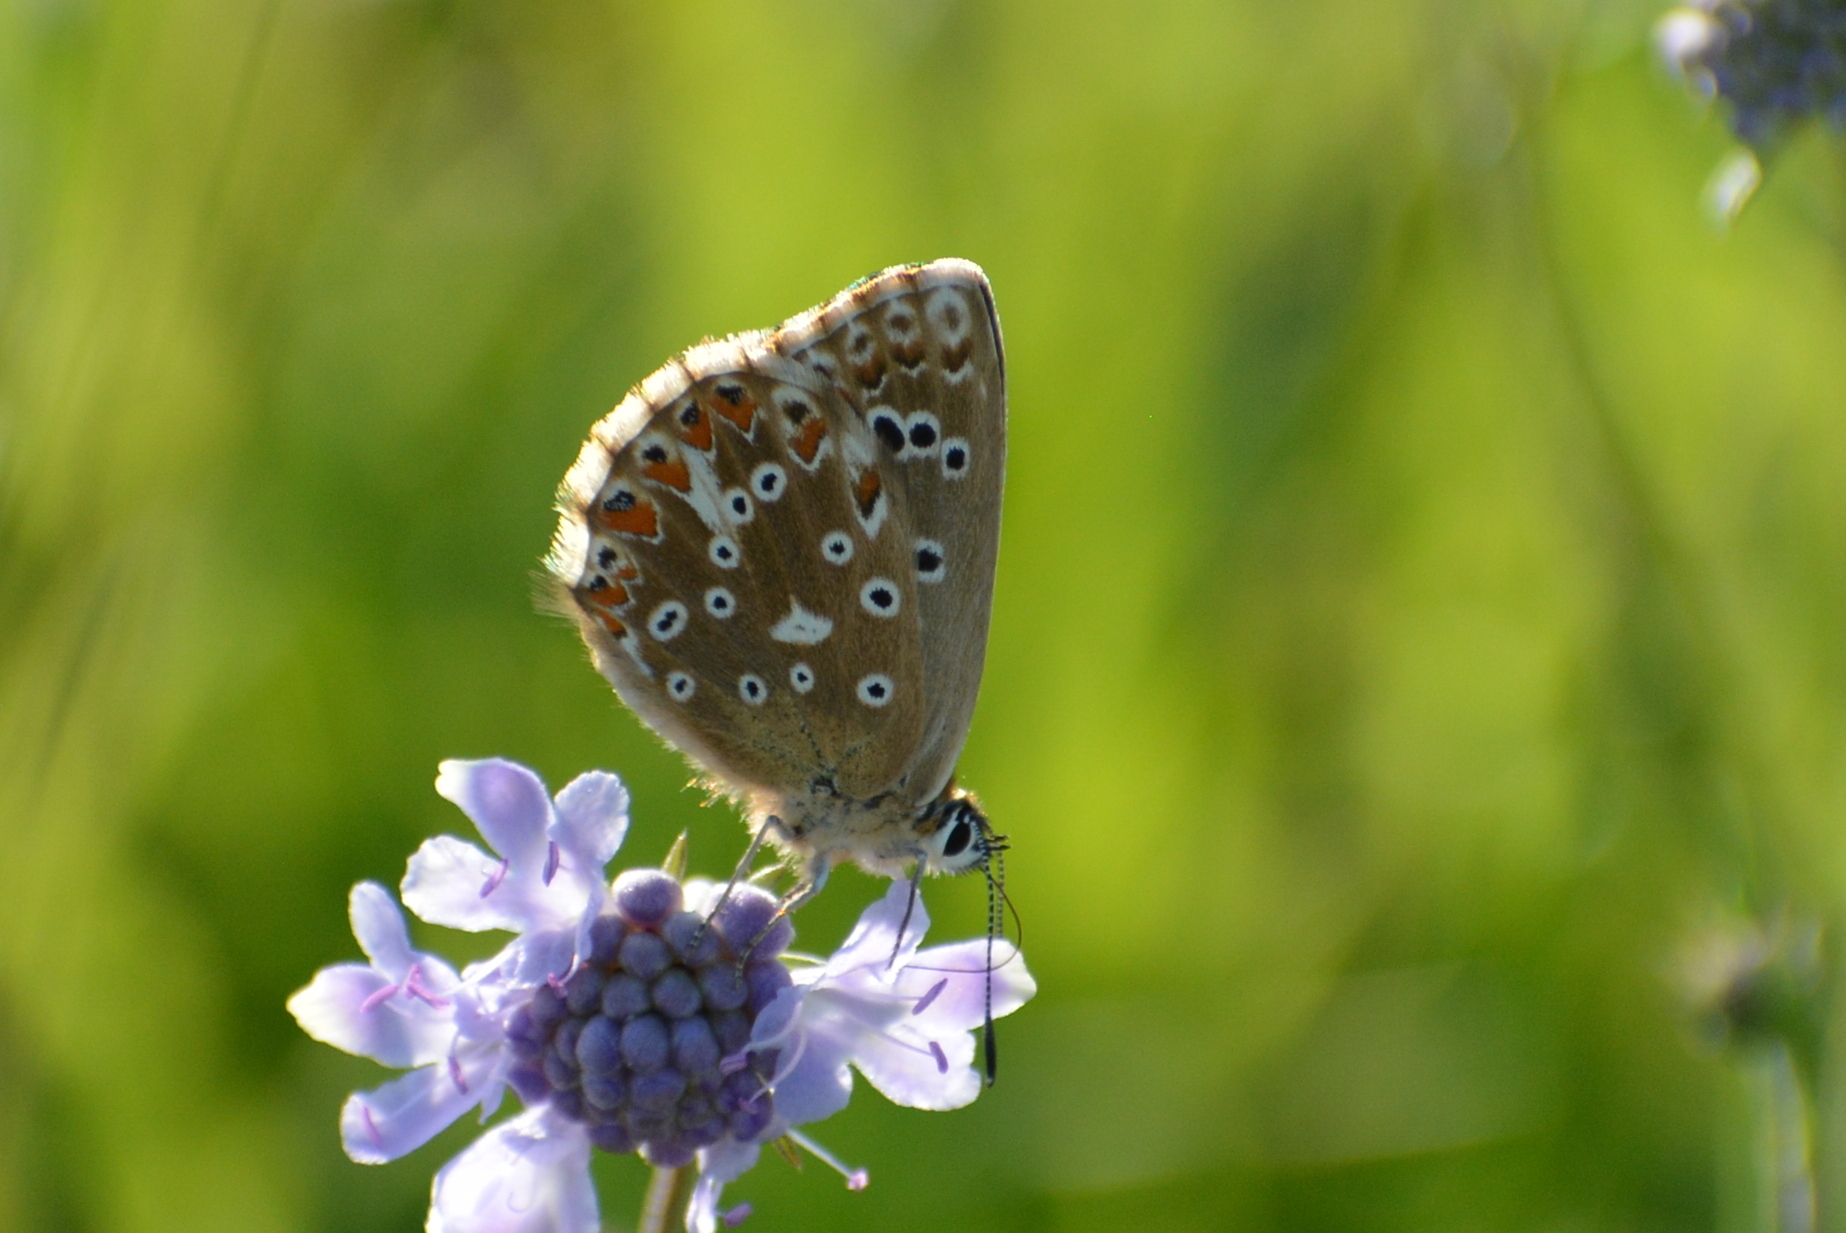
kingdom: Animalia
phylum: Arthropoda
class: Insecta
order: Lepidoptera
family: Lycaenidae
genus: Lysandra
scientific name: Lysandra coridon
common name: Chalkhill blue
